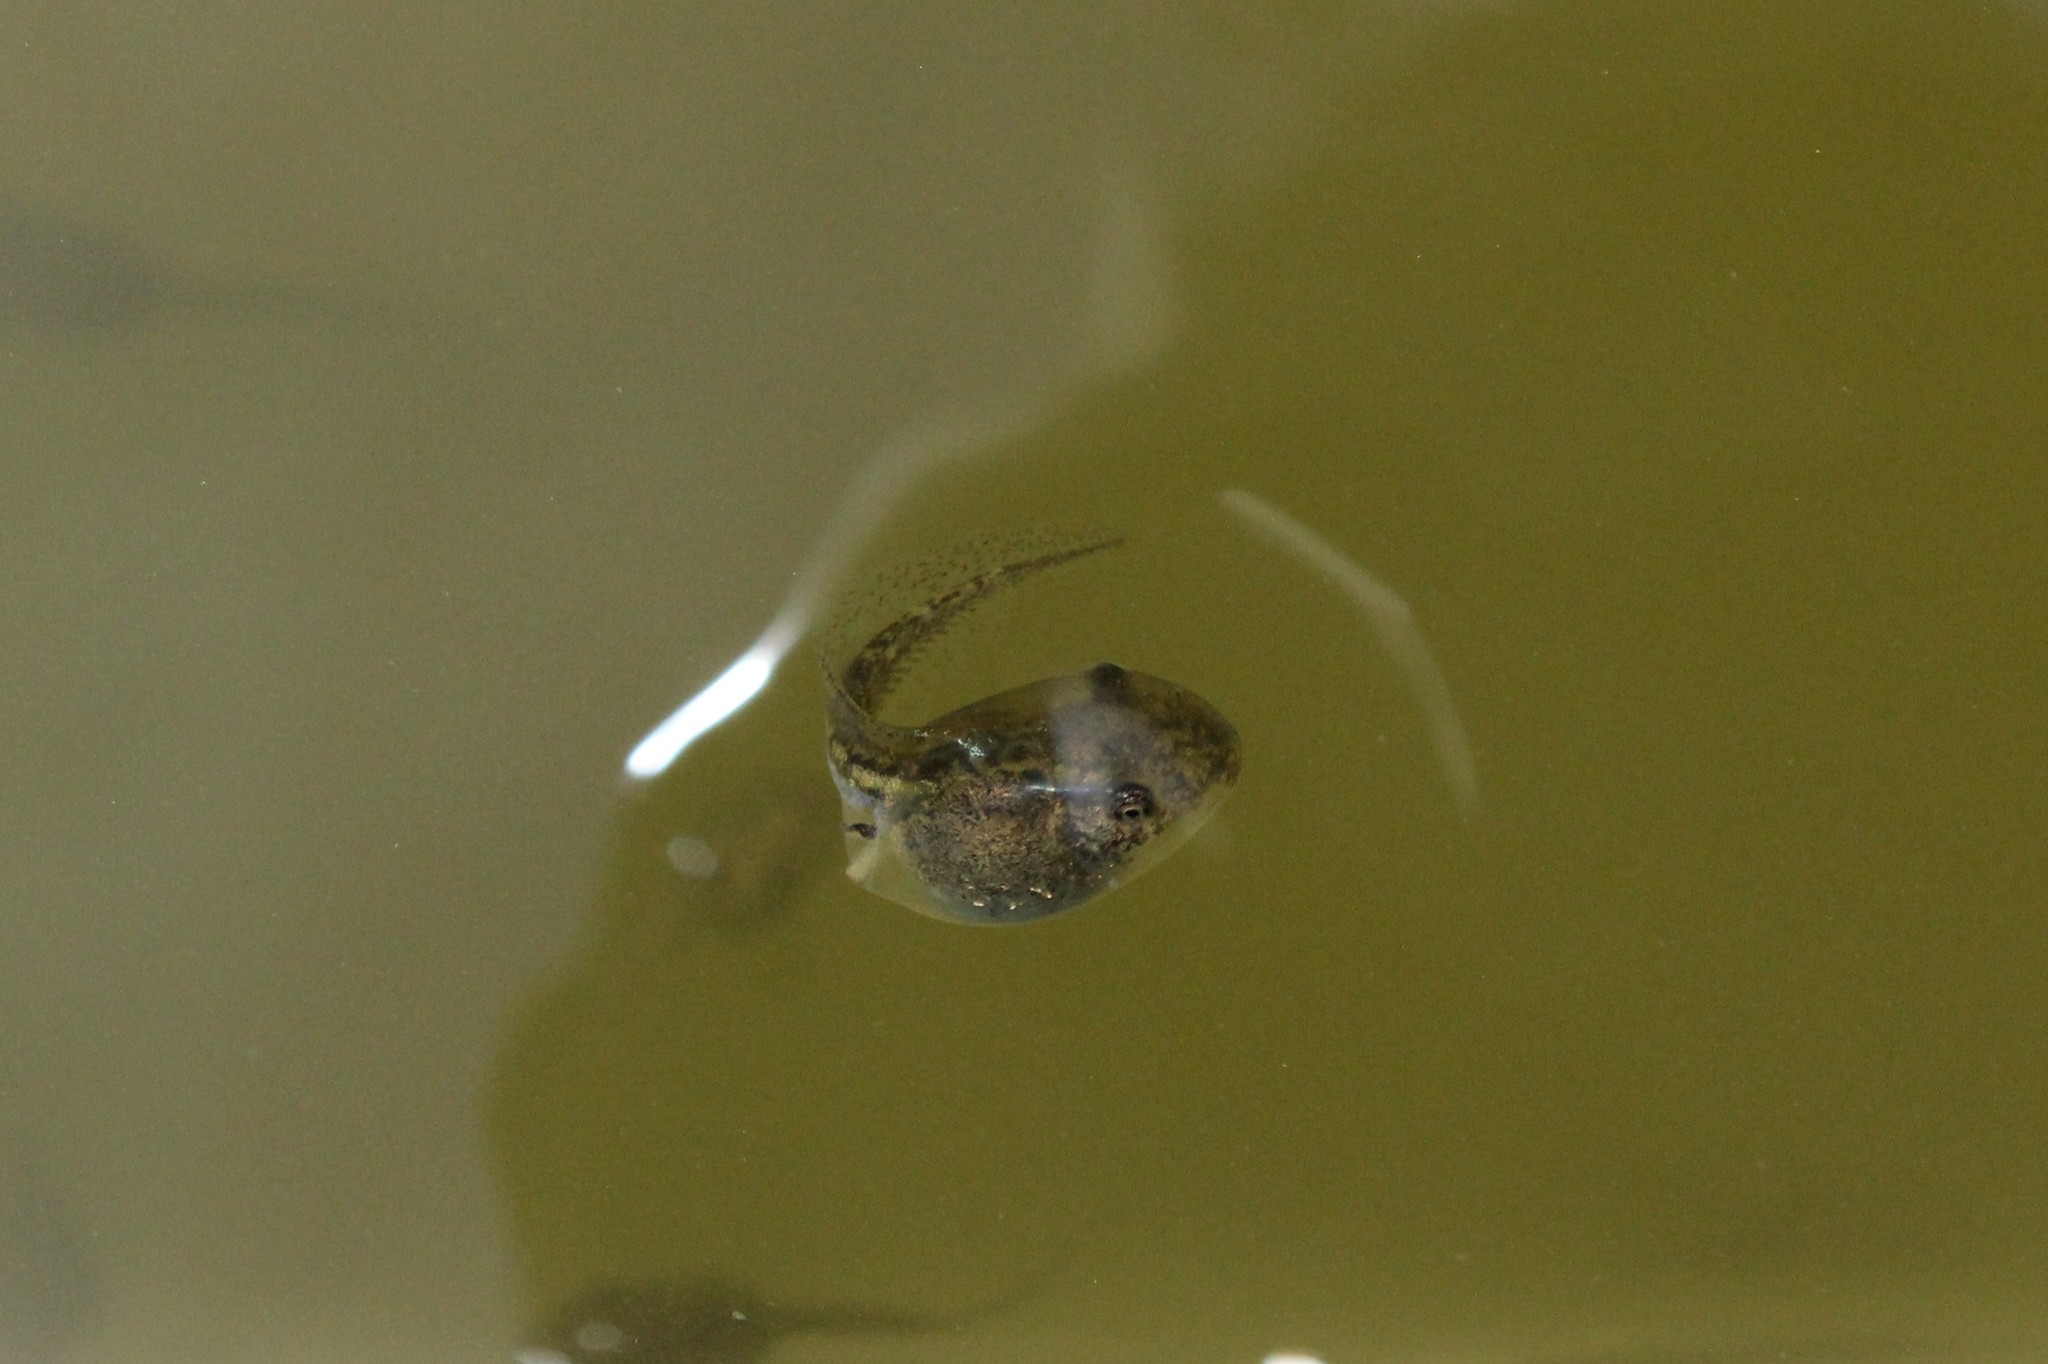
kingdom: Animalia
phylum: Chordata
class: Amphibia
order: Anura
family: Hylidae
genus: Pseudacris
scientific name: Pseudacris regilla
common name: Pacific chorus frog
